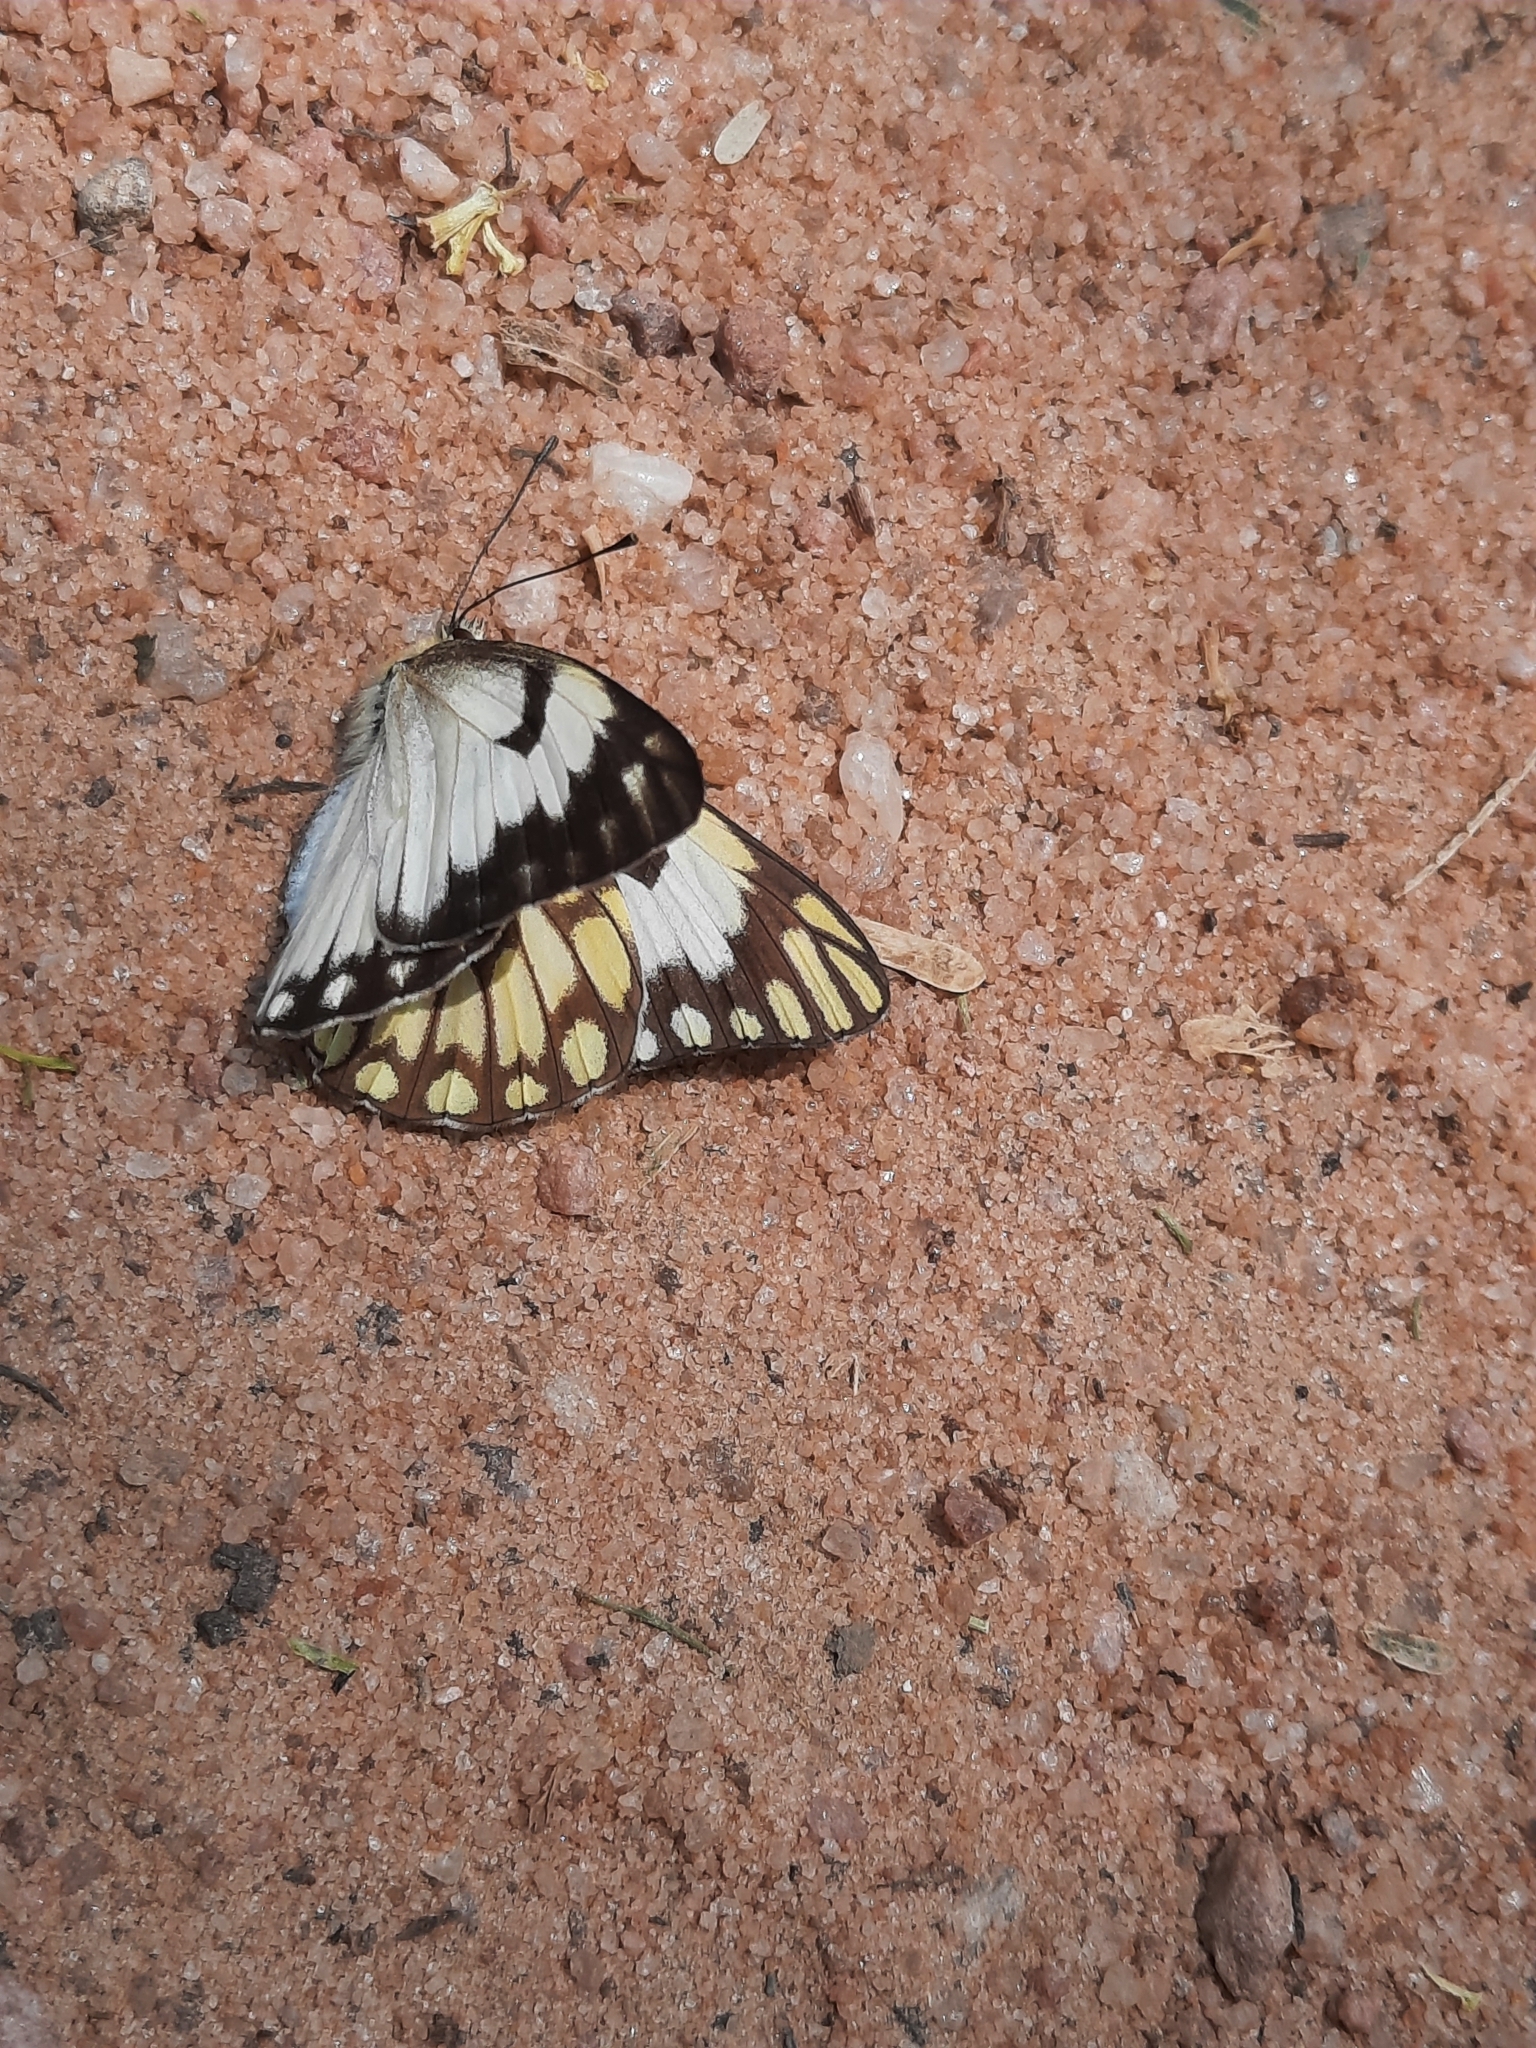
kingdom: Animalia
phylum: Arthropoda
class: Insecta
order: Lepidoptera
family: Pieridae
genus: Belenois
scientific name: Belenois aurota
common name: Brown-veined white
